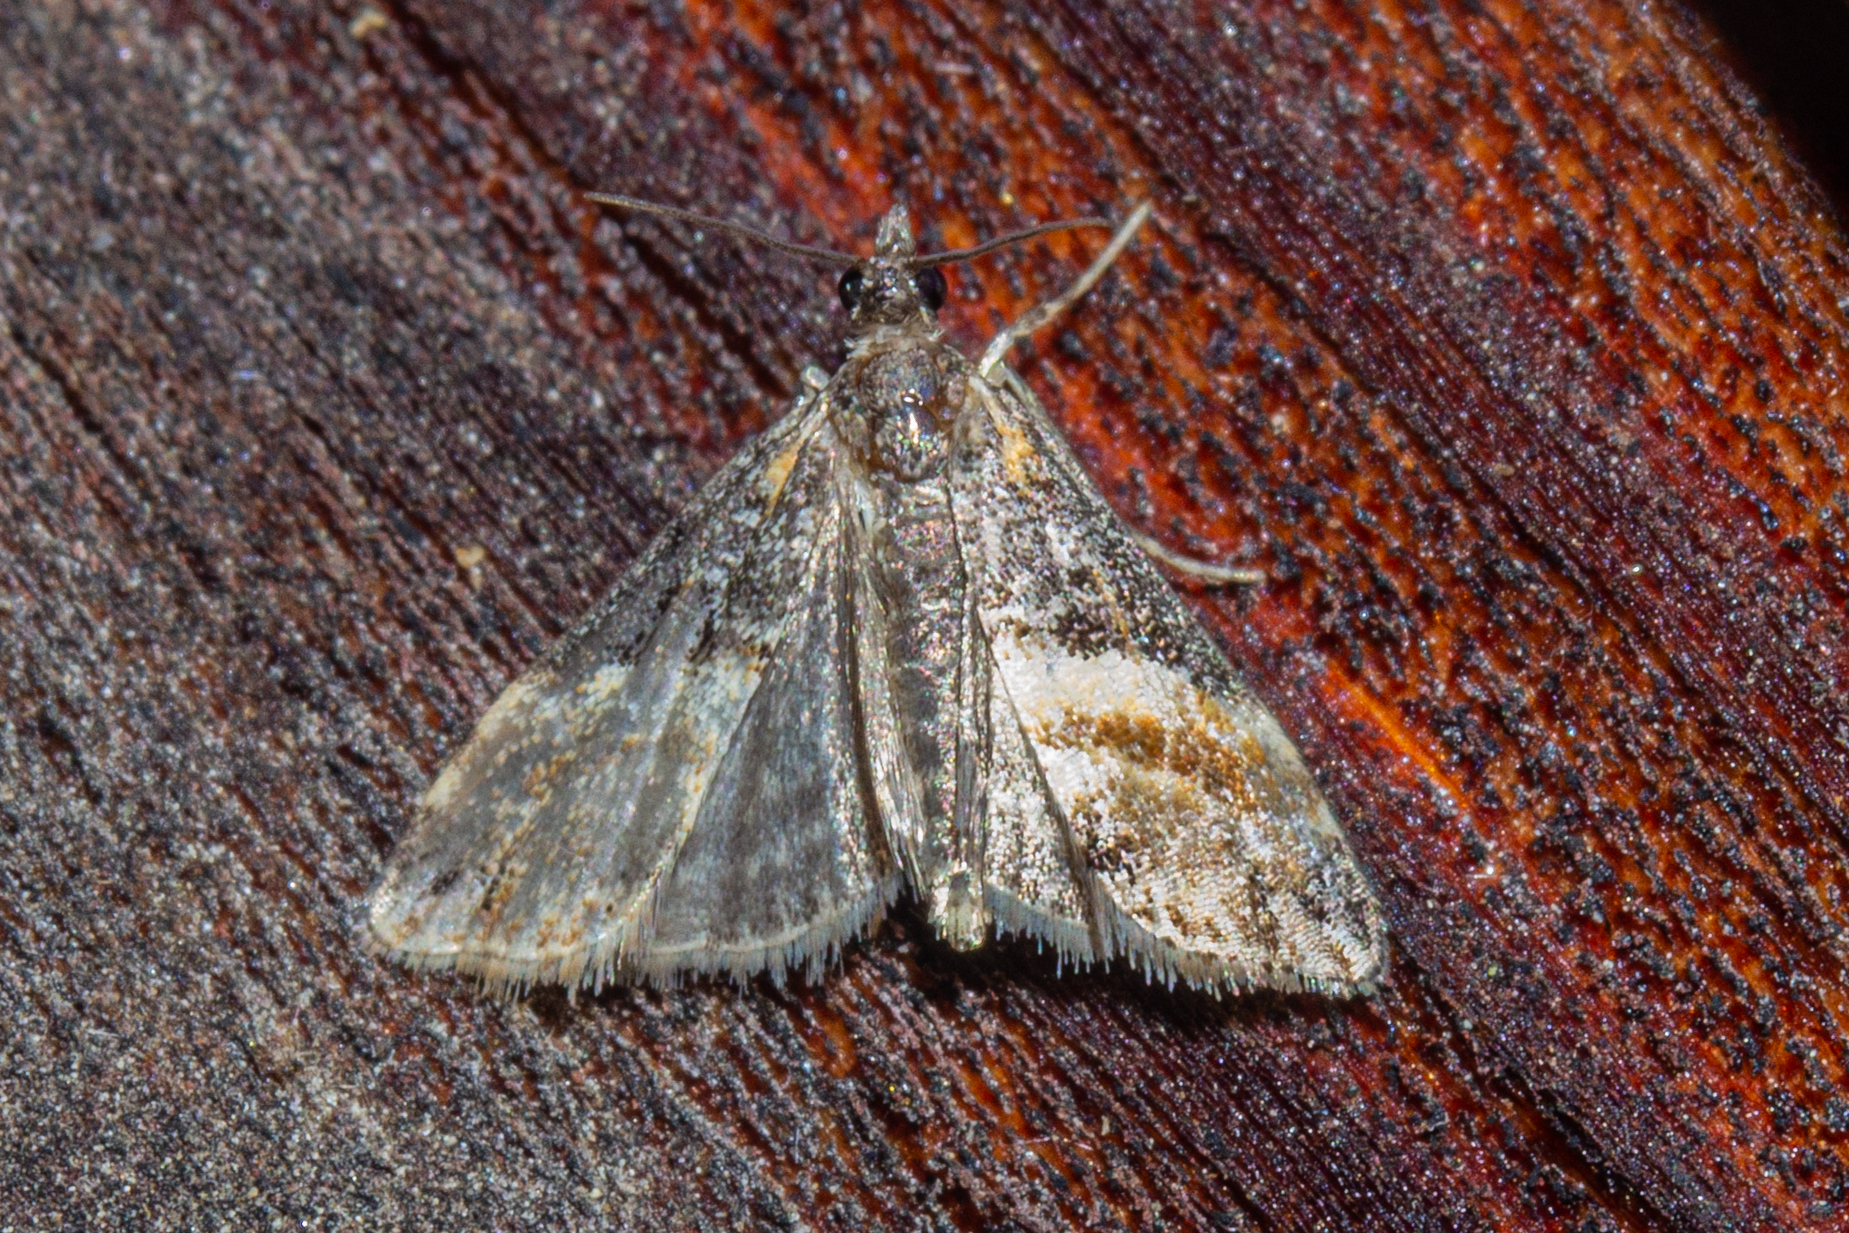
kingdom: Animalia
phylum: Arthropoda
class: Insecta
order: Lepidoptera
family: Crambidae
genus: Eudonia
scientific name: Eudonia chlamydota
